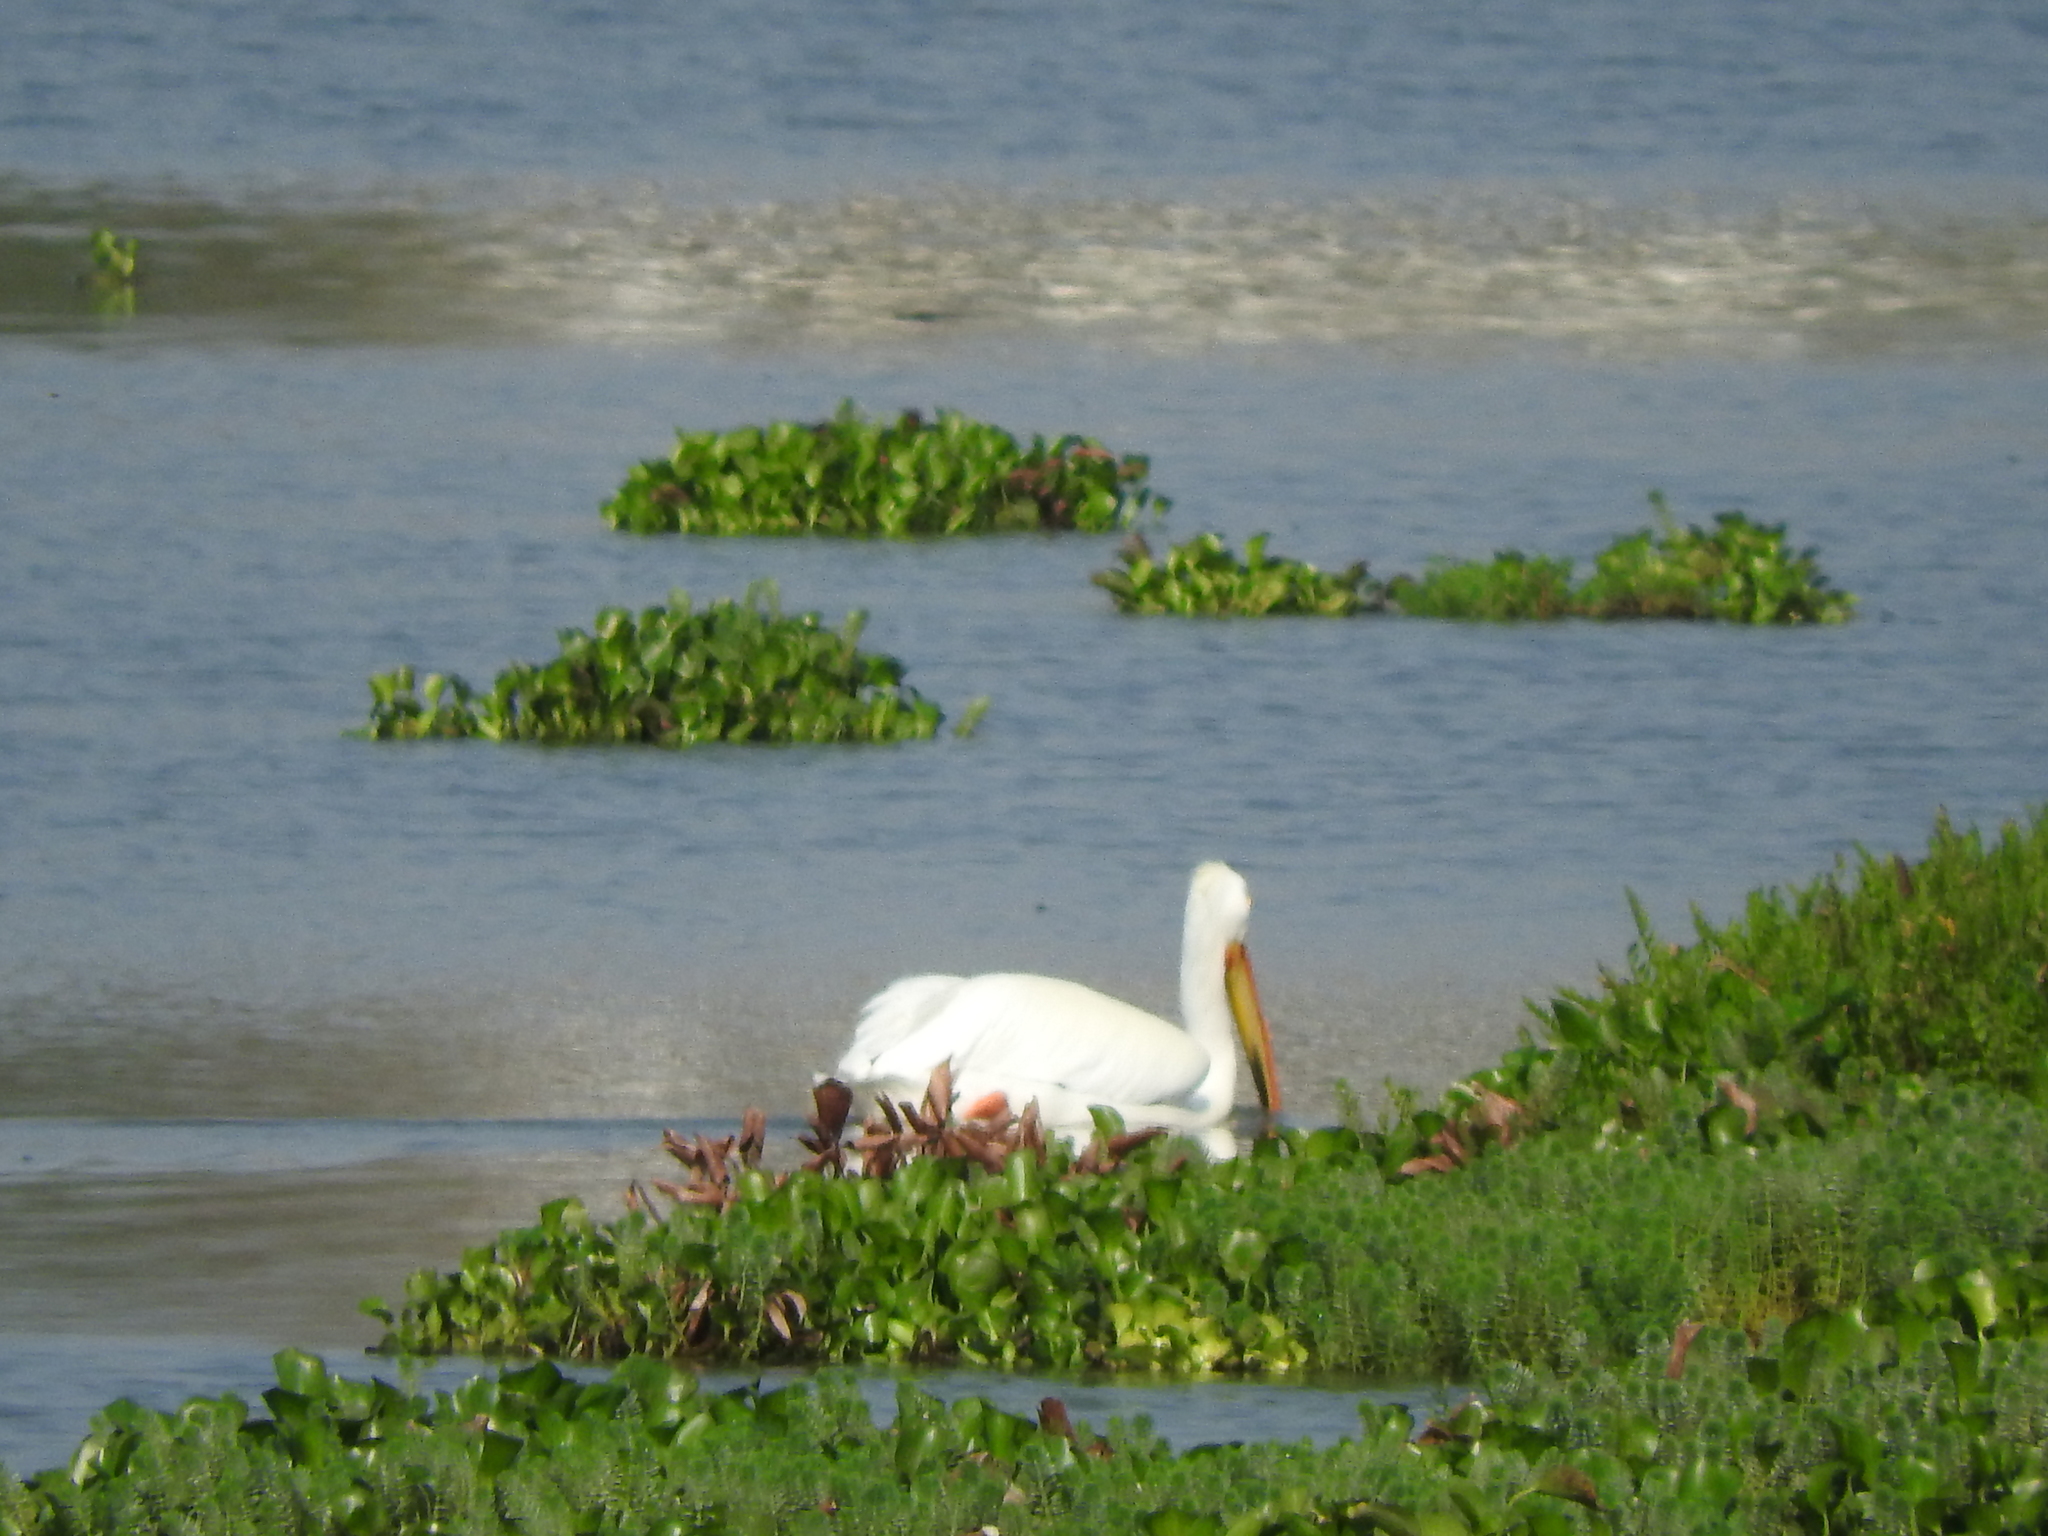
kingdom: Animalia
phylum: Chordata
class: Aves
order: Pelecaniformes
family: Pelecanidae
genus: Pelecanus
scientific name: Pelecanus erythrorhynchos
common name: American white pelican
